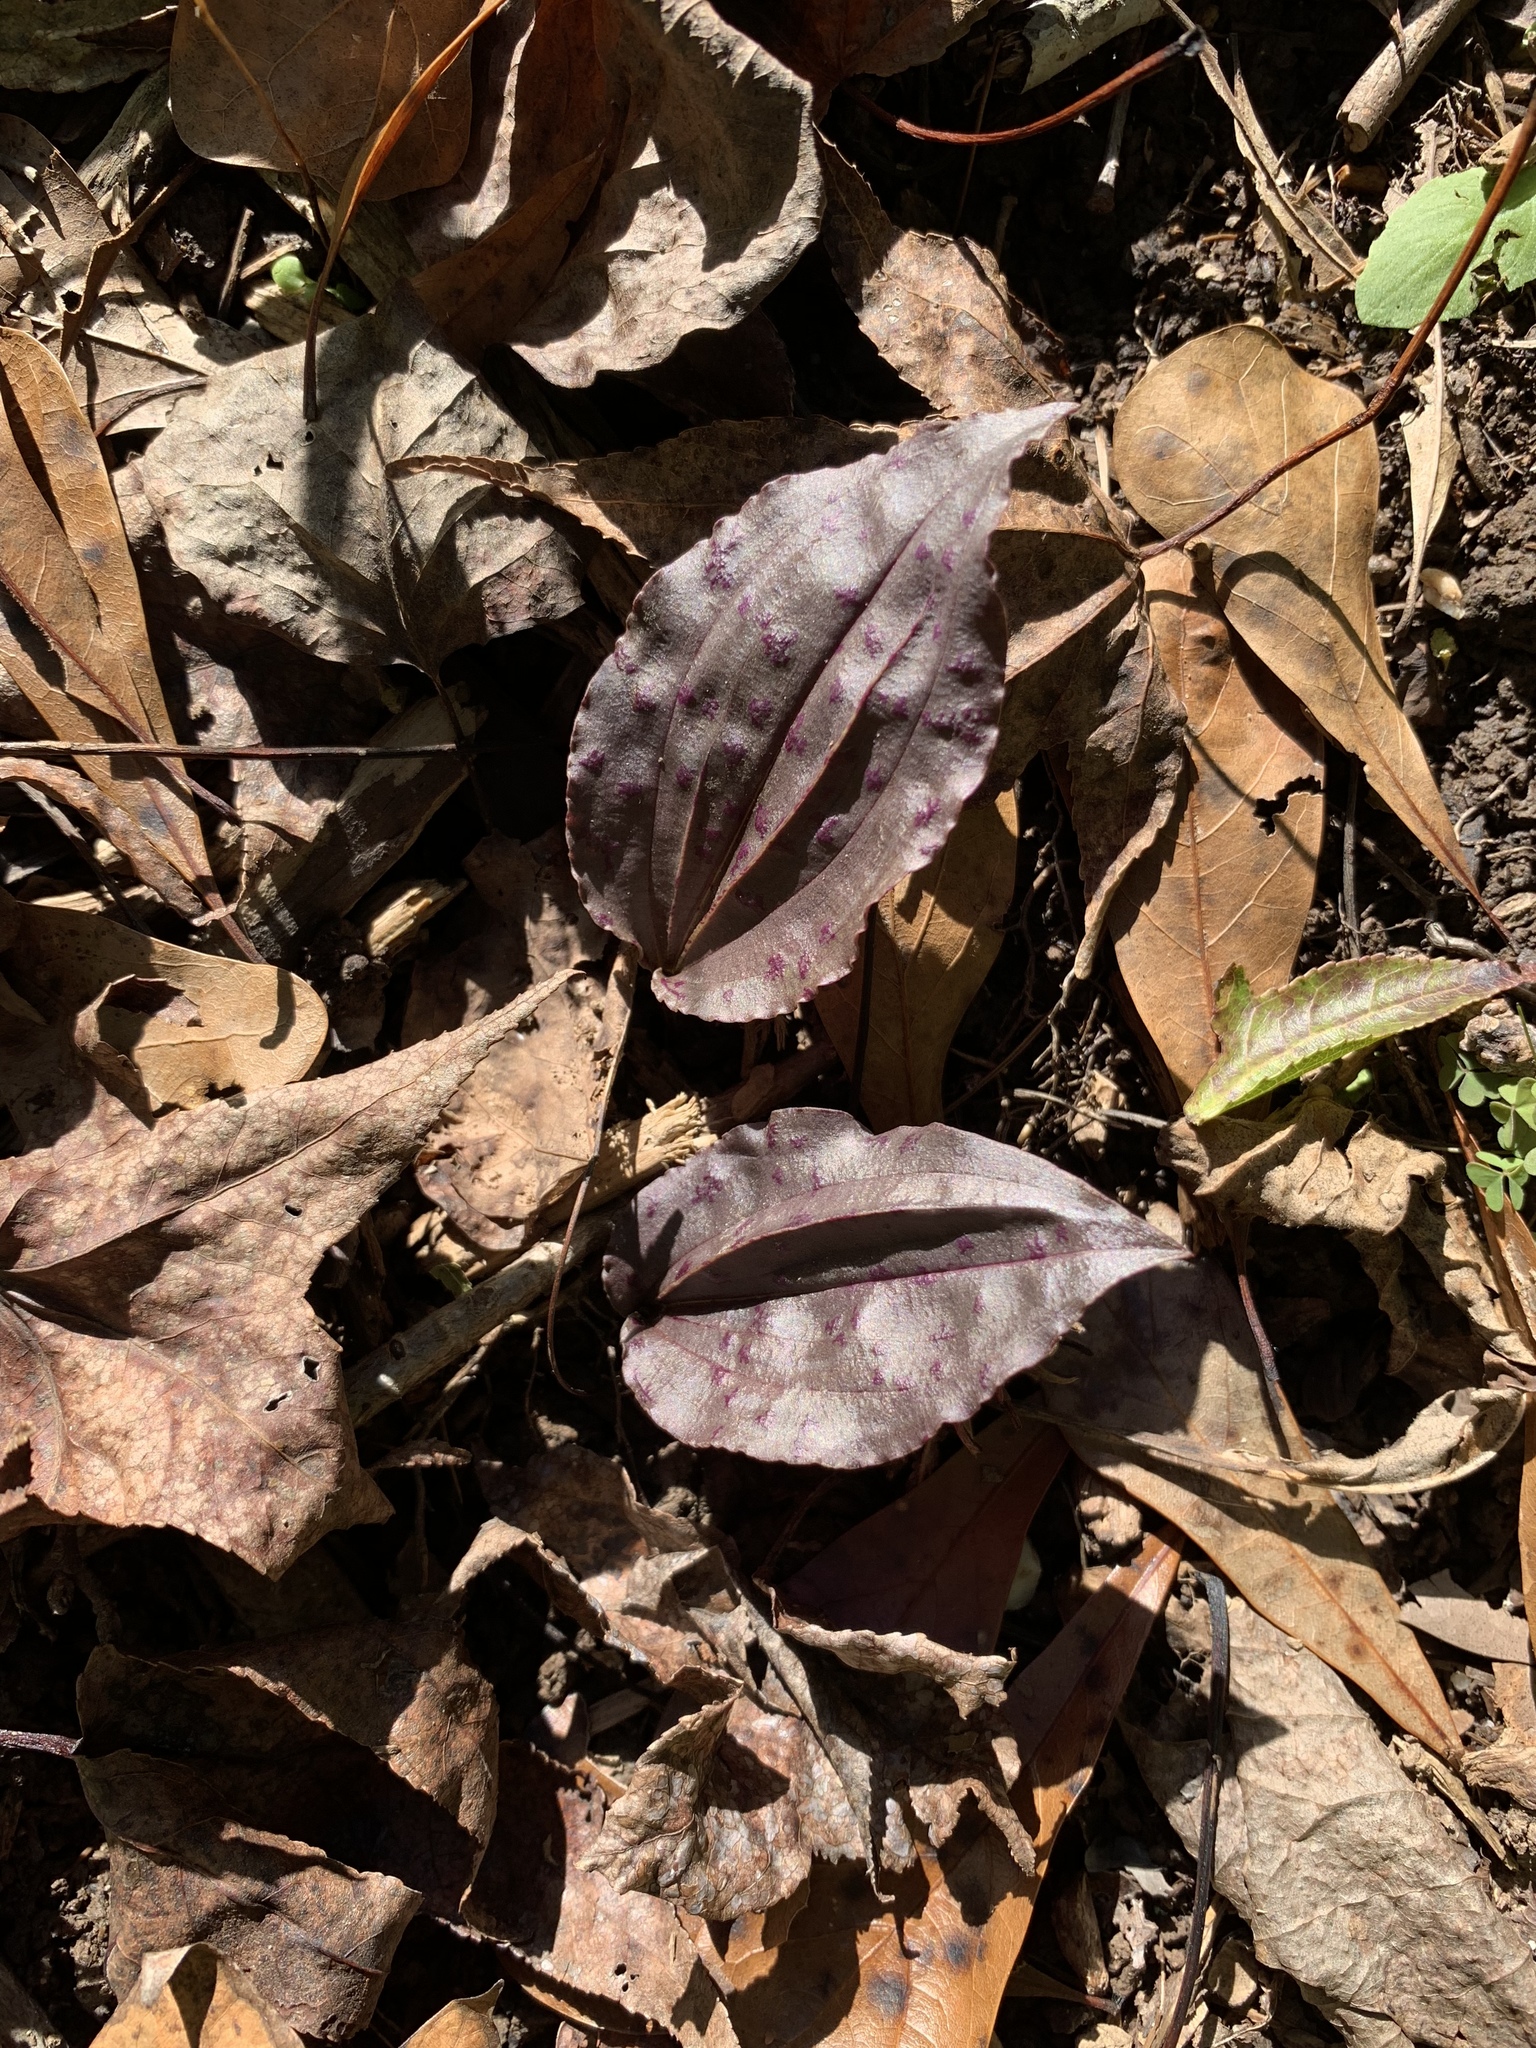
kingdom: Plantae
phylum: Tracheophyta
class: Liliopsida
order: Asparagales
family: Orchidaceae
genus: Tipularia
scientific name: Tipularia discolor
